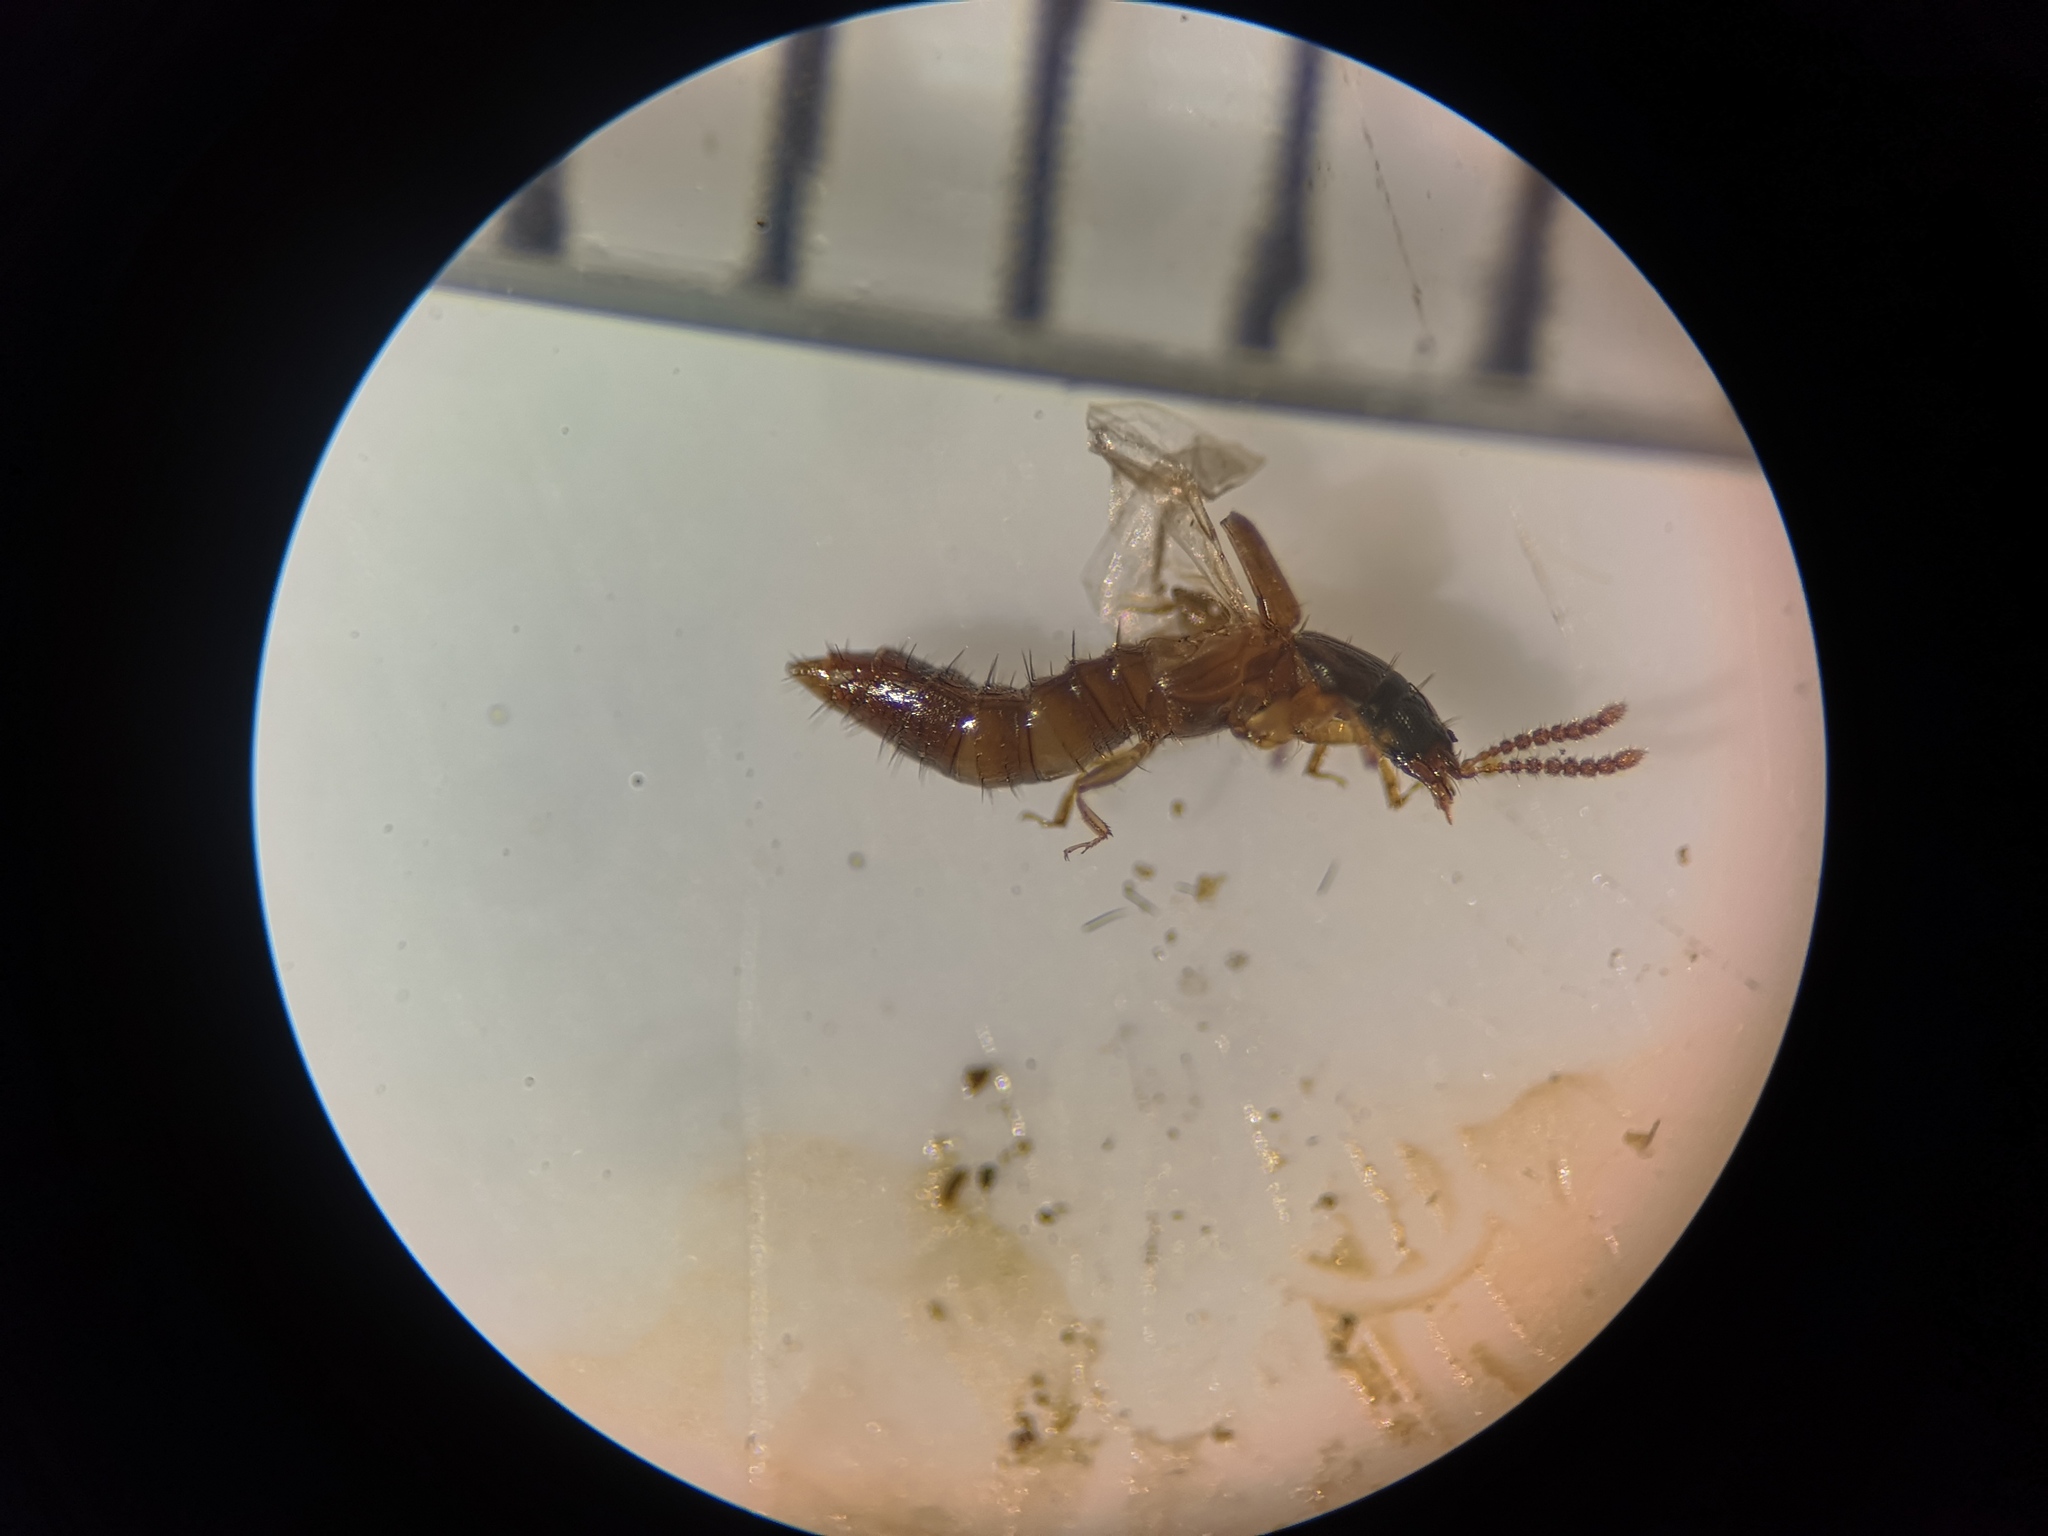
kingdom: Animalia
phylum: Arthropoda
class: Insecta
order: Coleoptera
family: Staphylinidae
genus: Oxytelus
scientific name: Oxytelus migrator
